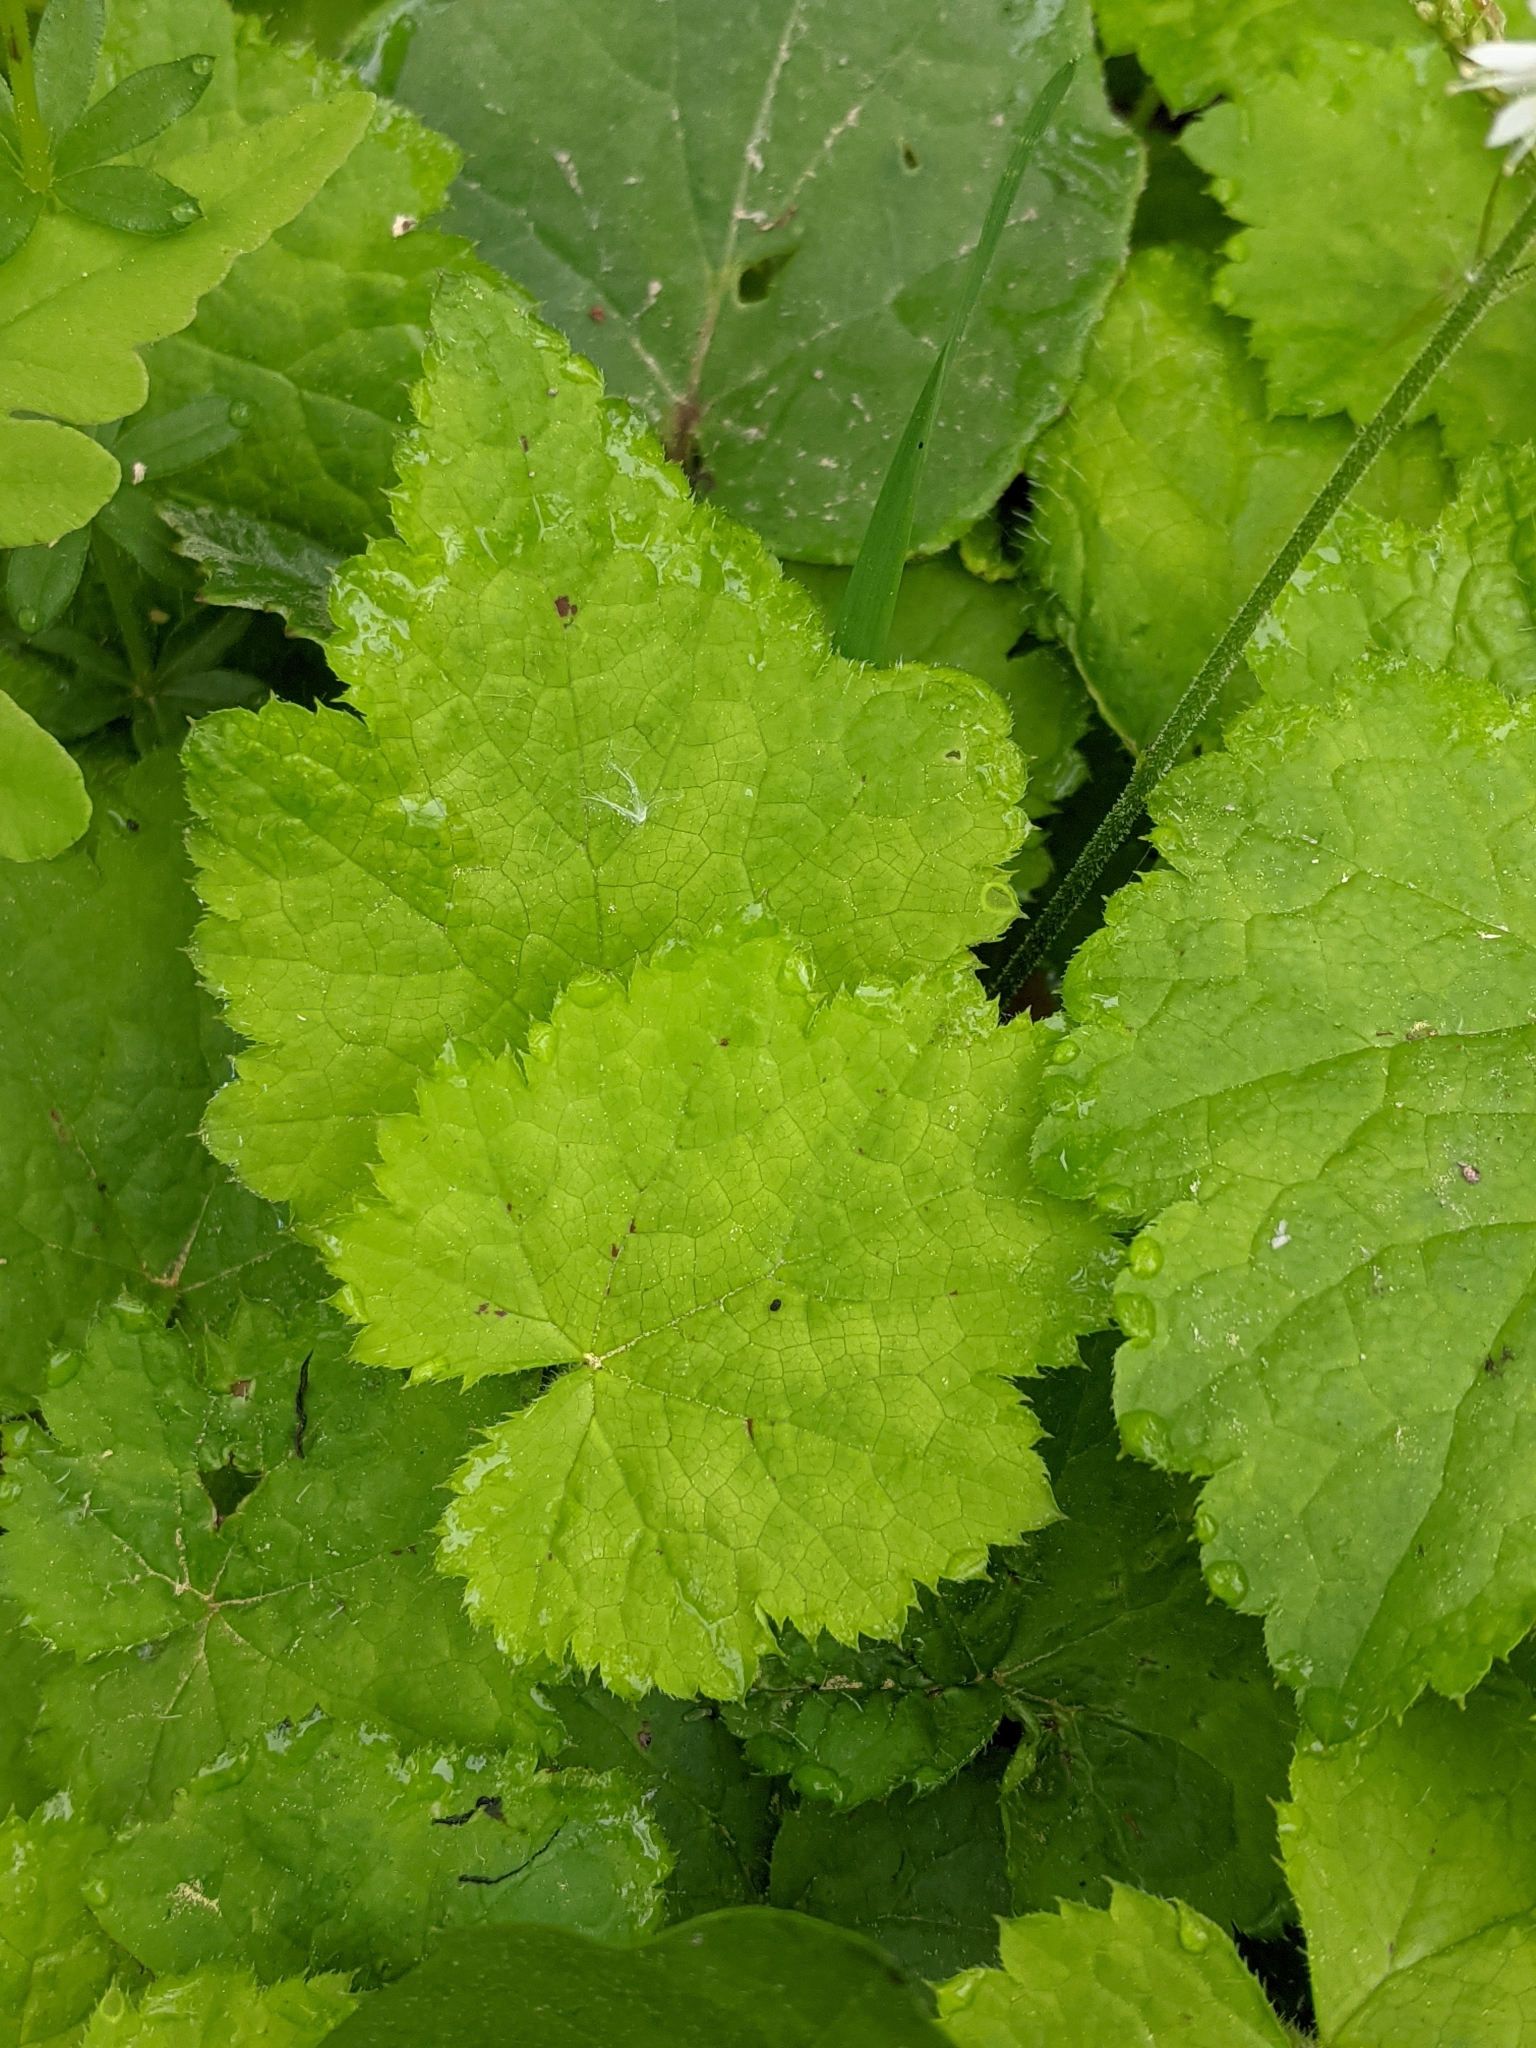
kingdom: Plantae
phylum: Tracheophyta
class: Magnoliopsida
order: Saxifragales
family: Saxifragaceae
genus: Tiarella
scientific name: Tiarella stolonifera
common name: Stoloniferous foamflower
